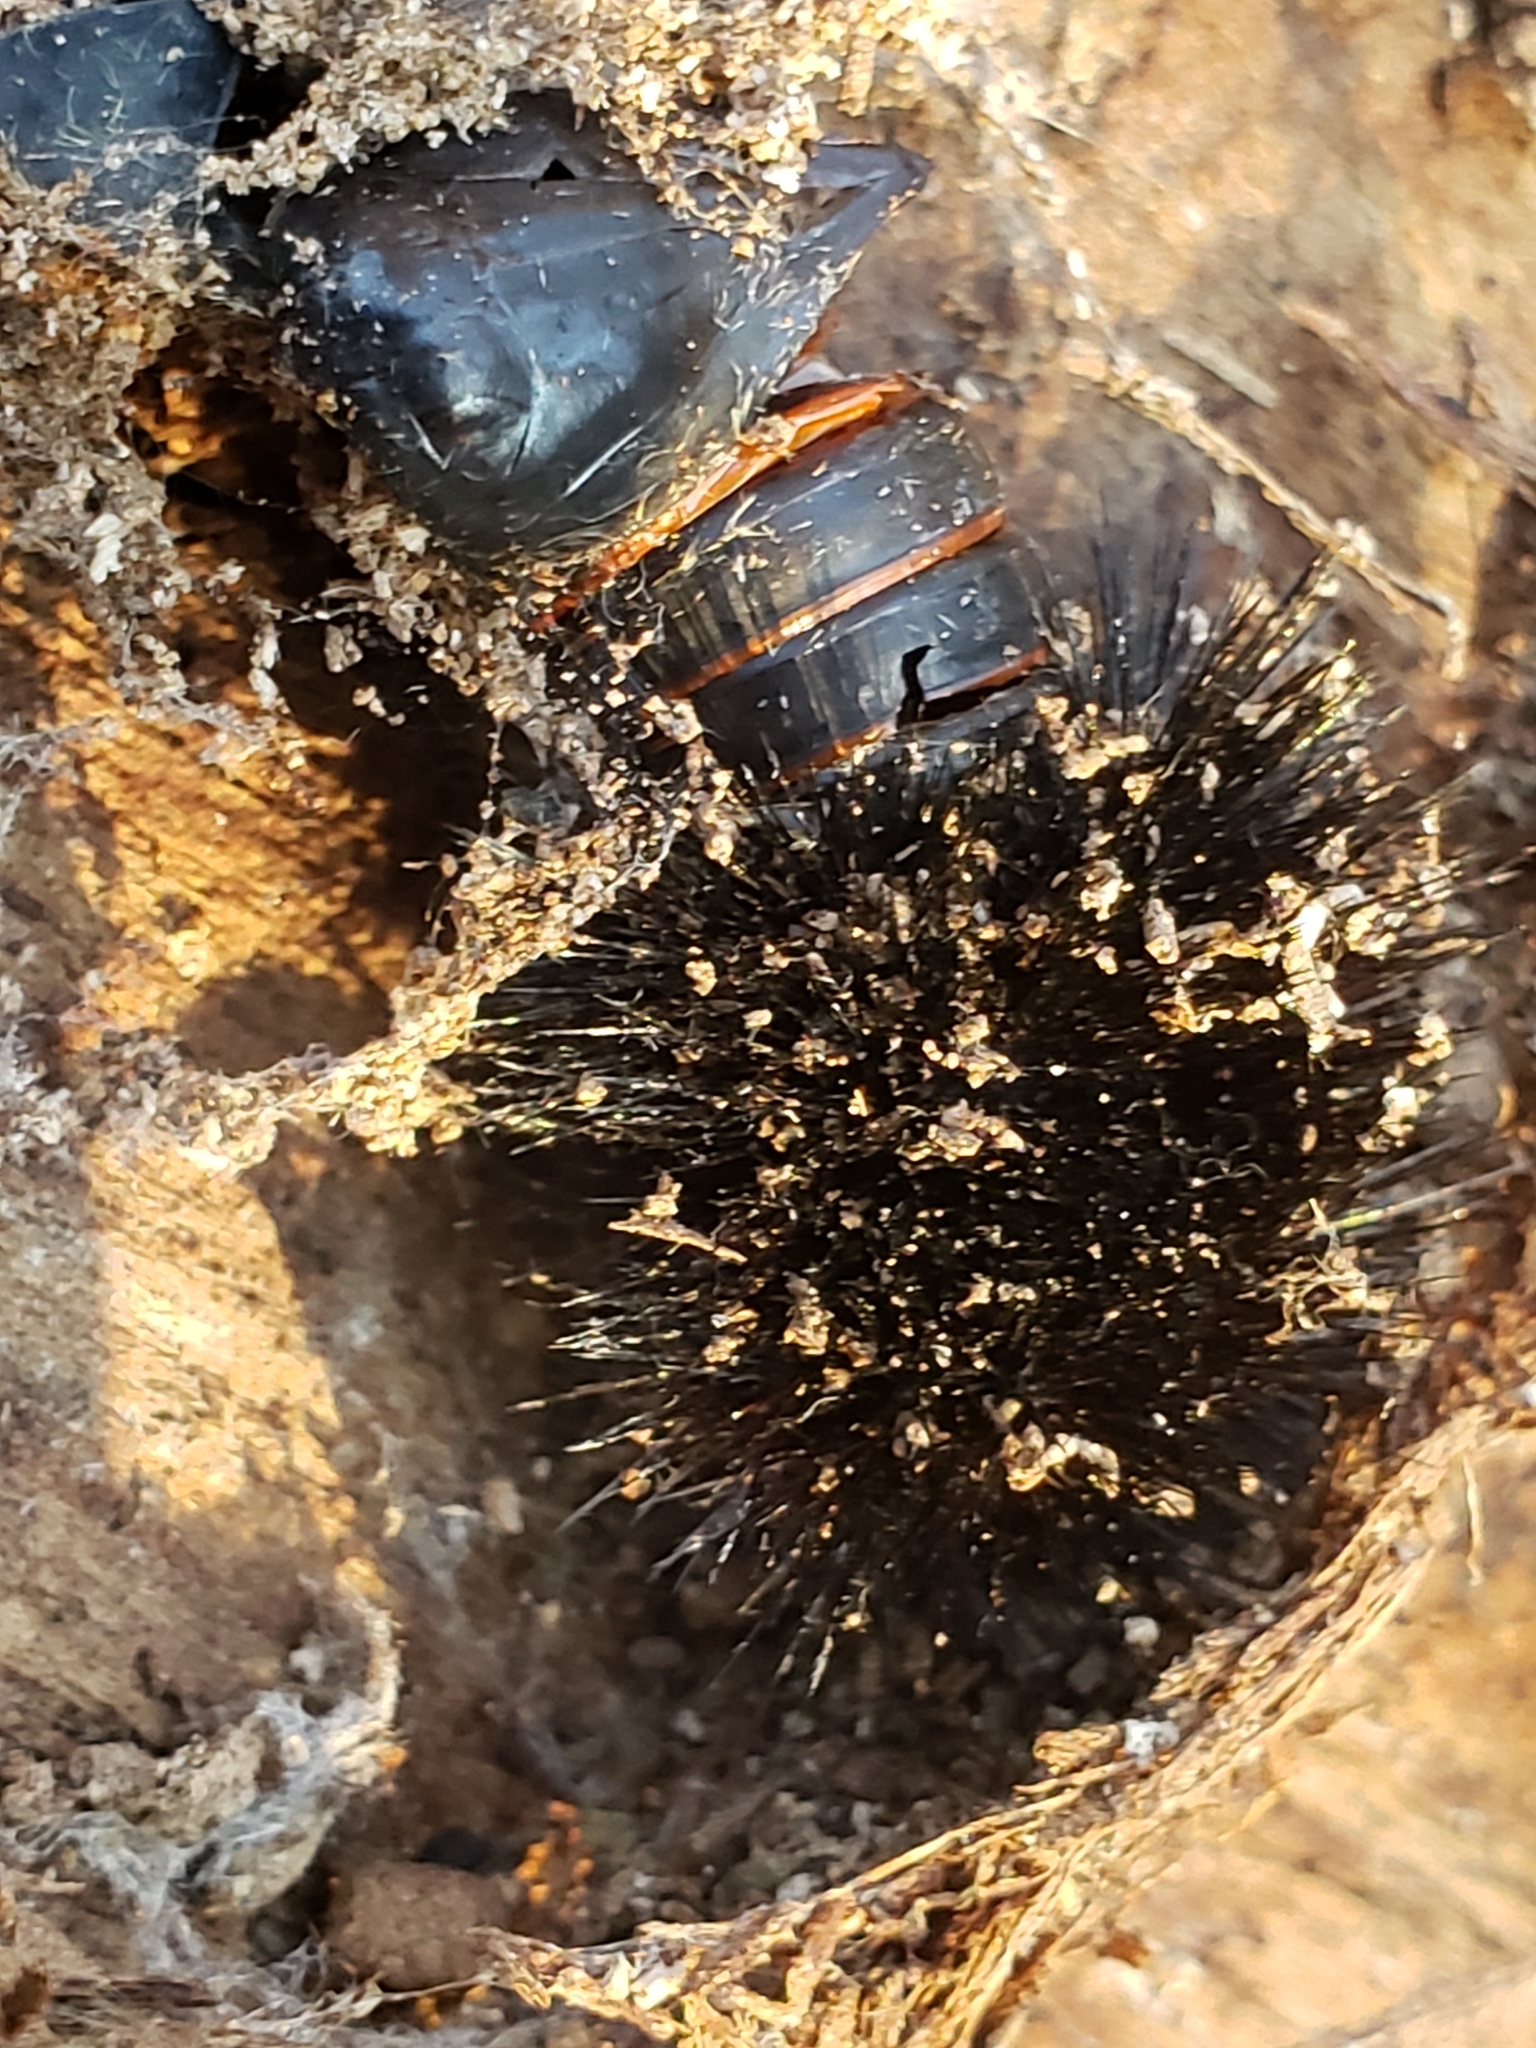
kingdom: Animalia
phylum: Arthropoda
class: Insecta
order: Lepidoptera
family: Erebidae
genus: Hypercompe
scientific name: Hypercompe scribonia
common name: Giant leopard moth
